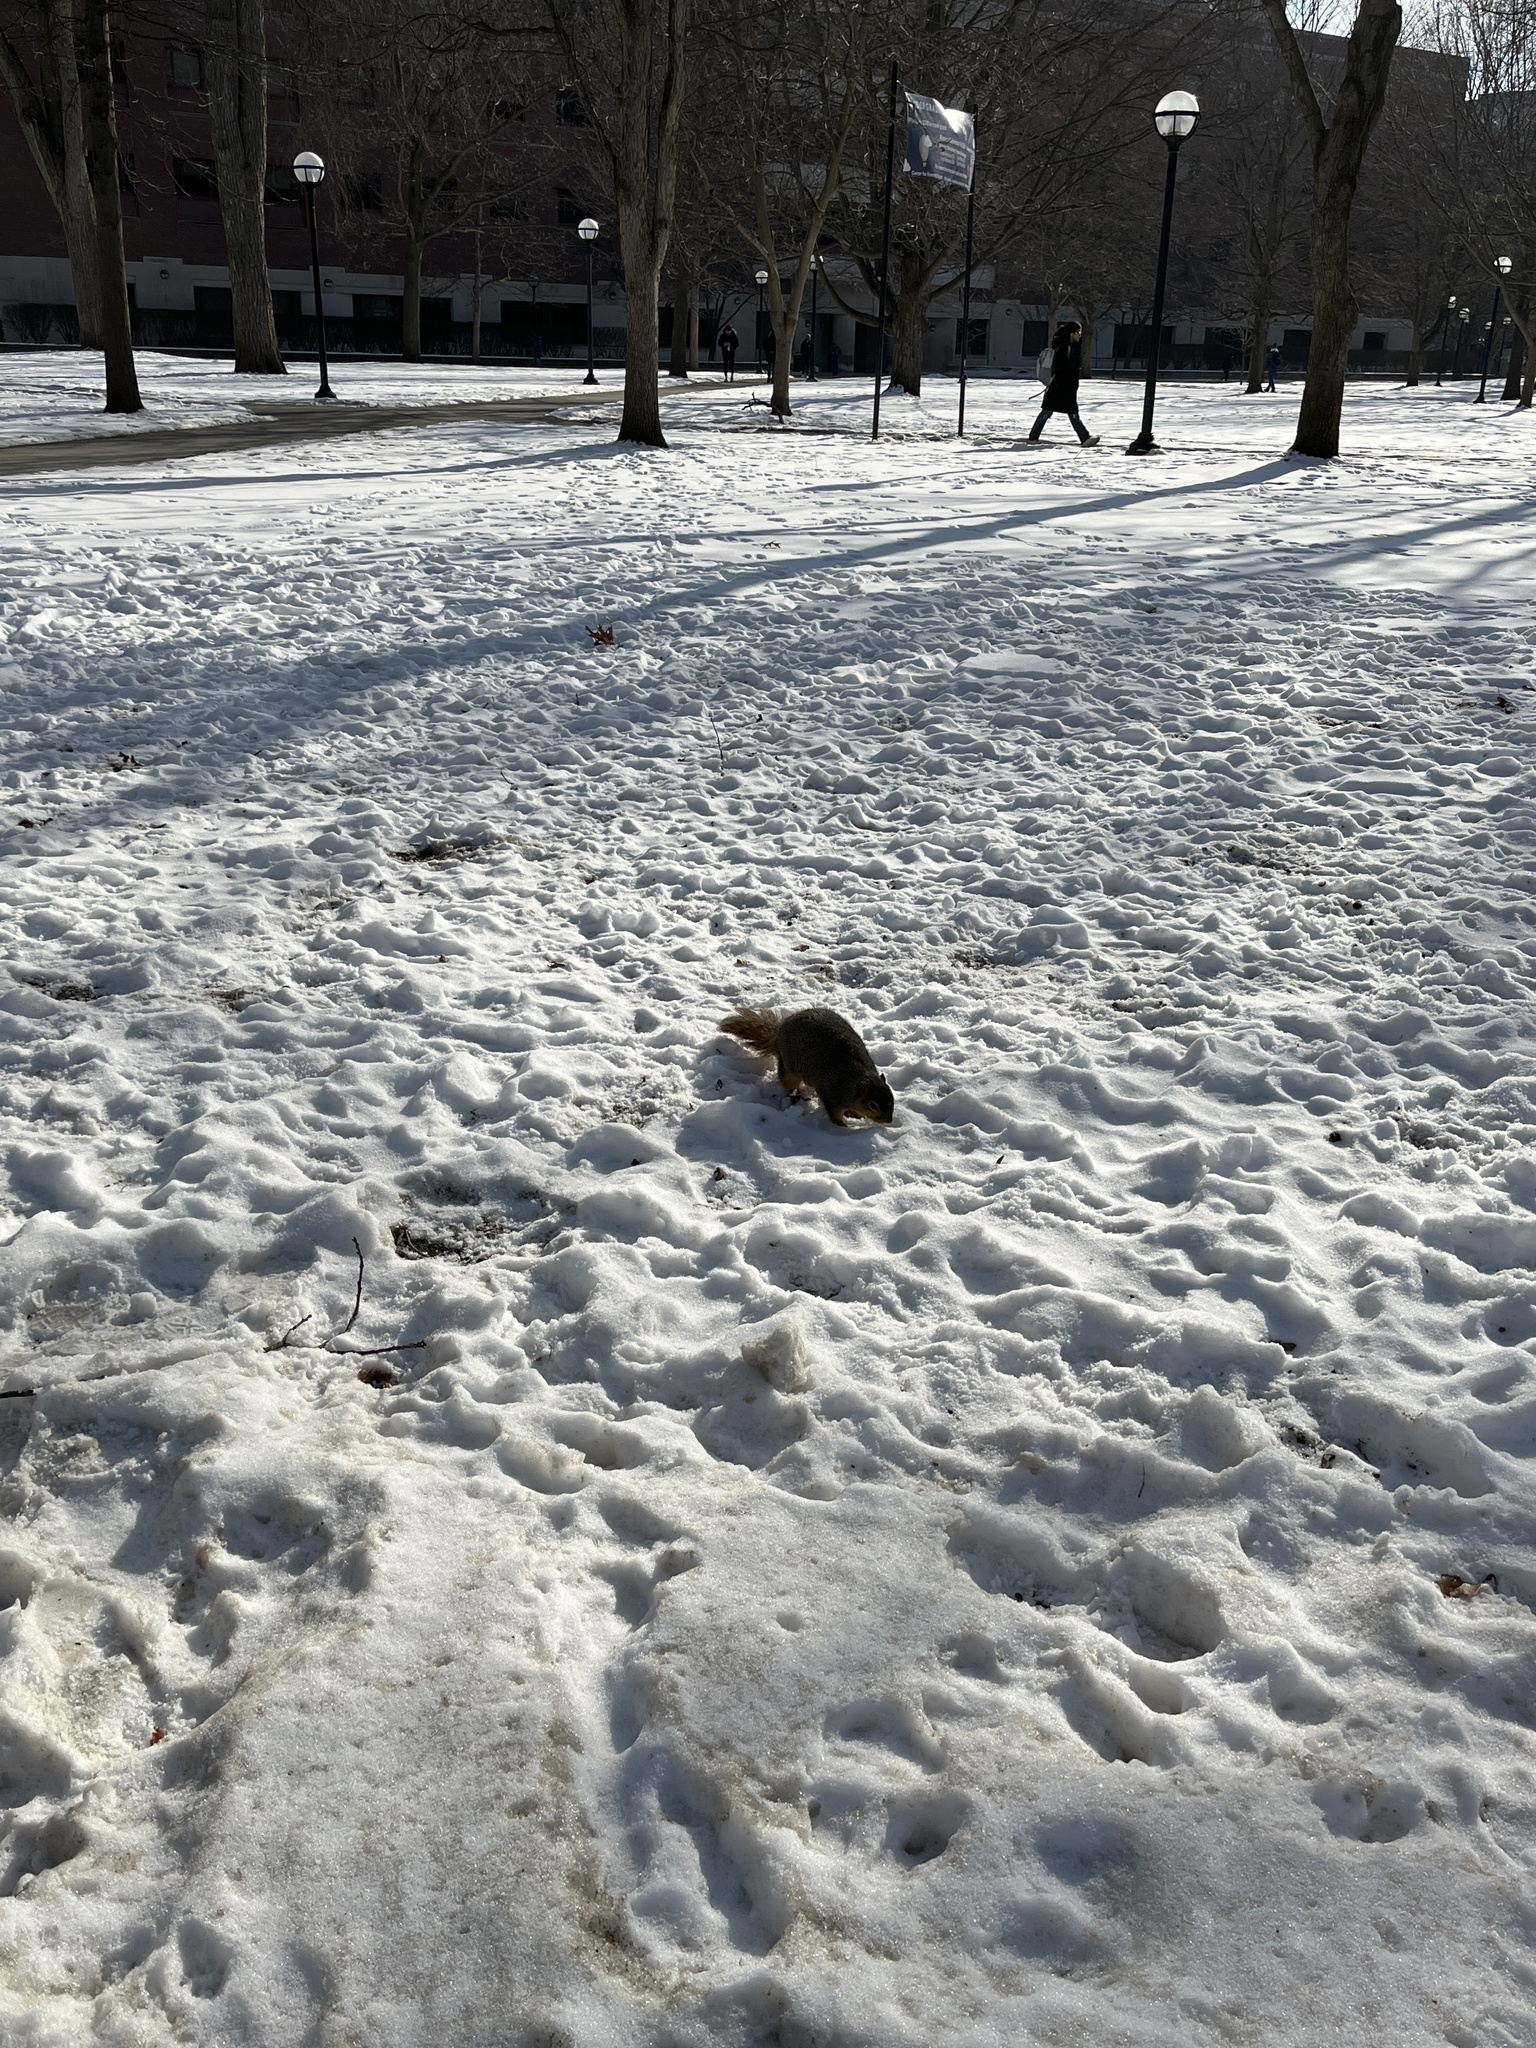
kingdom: Animalia
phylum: Chordata
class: Mammalia
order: Rodentia
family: Sciuridae
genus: Sciurus
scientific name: Sciurus niger
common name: Fox squirrel
